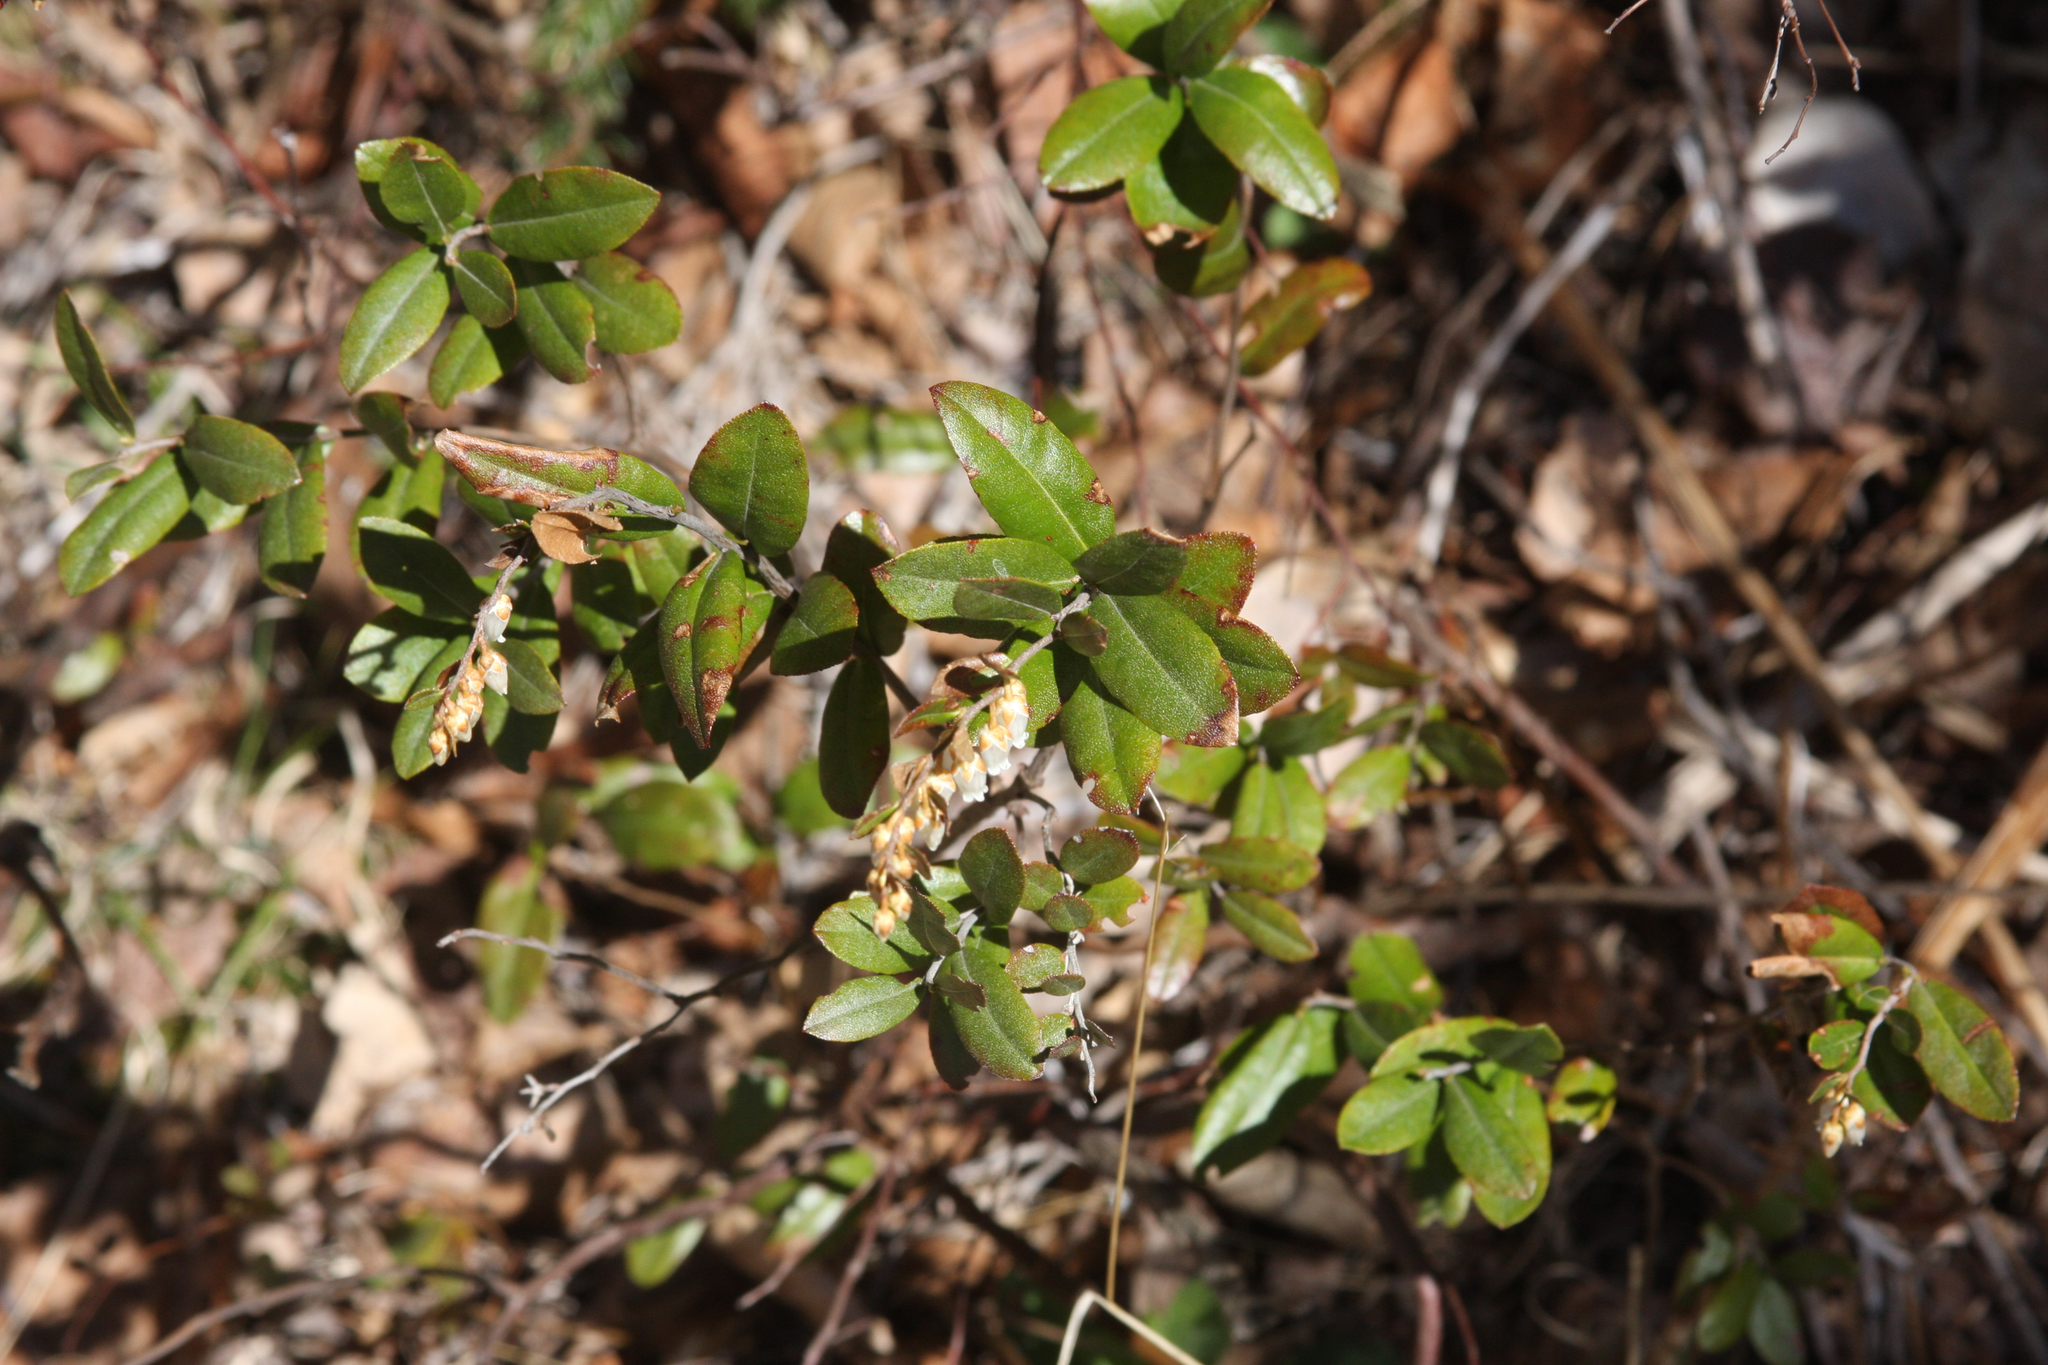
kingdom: Plantae
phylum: Tracheophyta
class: Magnoliopsida
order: Ericales
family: Ericaceae
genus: Chamaedaphne
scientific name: Chamaedaphne calyculata
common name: Leatherleaf
